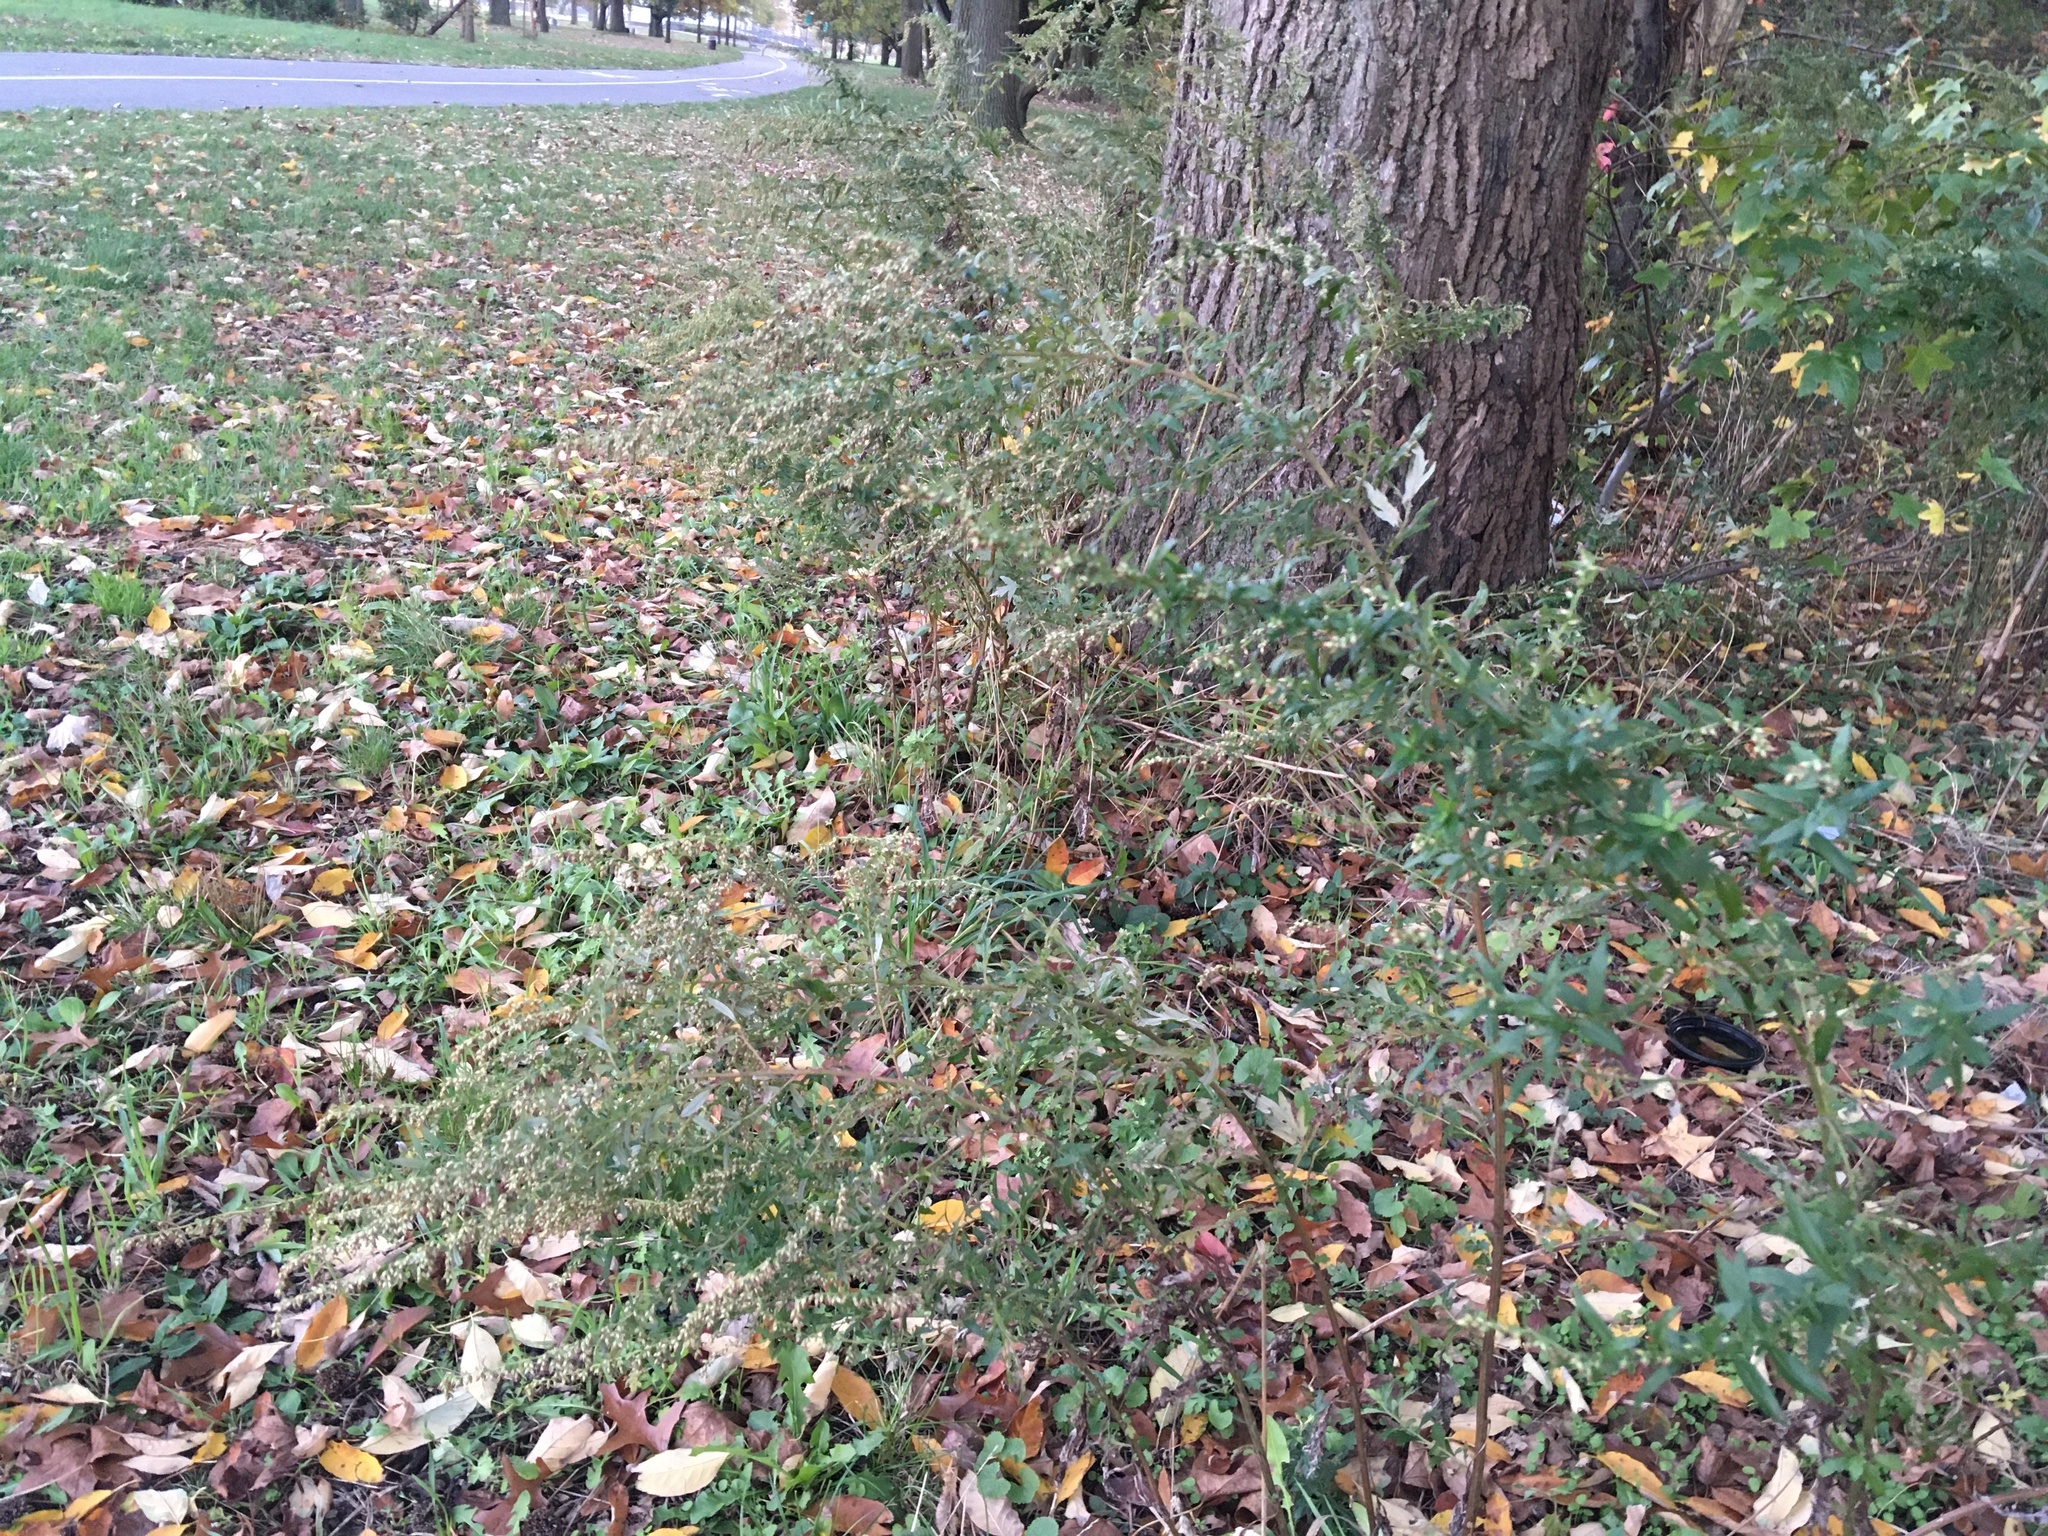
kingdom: Plantae
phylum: Tracheophyta
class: Magnoliopsida
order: Asterales
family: Asteraceae
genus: Artemisia
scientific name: Artemisia vulgaris
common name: Mugwort
